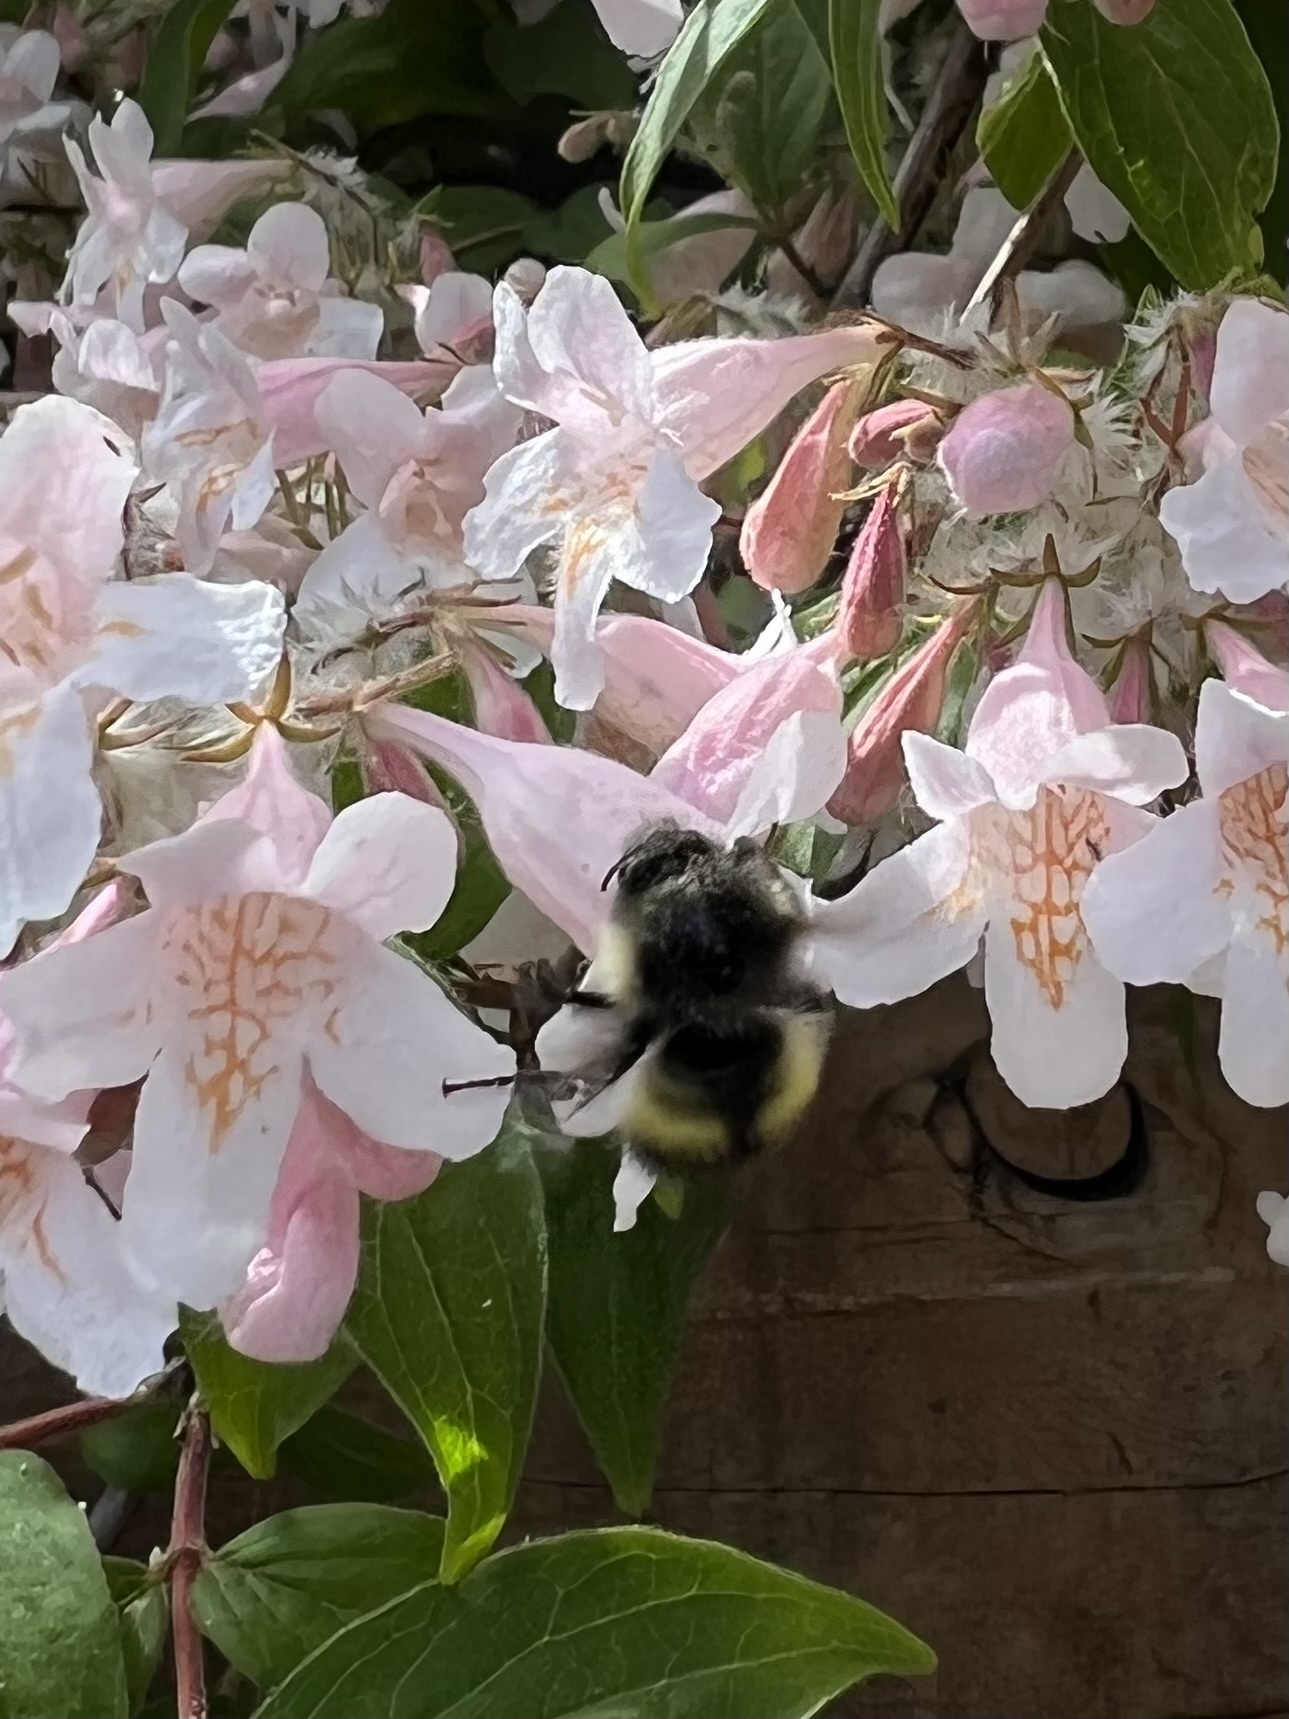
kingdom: Animalia
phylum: Arthropoda
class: Insecta
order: Hymenoptera
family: Apidae
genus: Bombus
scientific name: Bombus flavifrons
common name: Yellow head bumble bee
